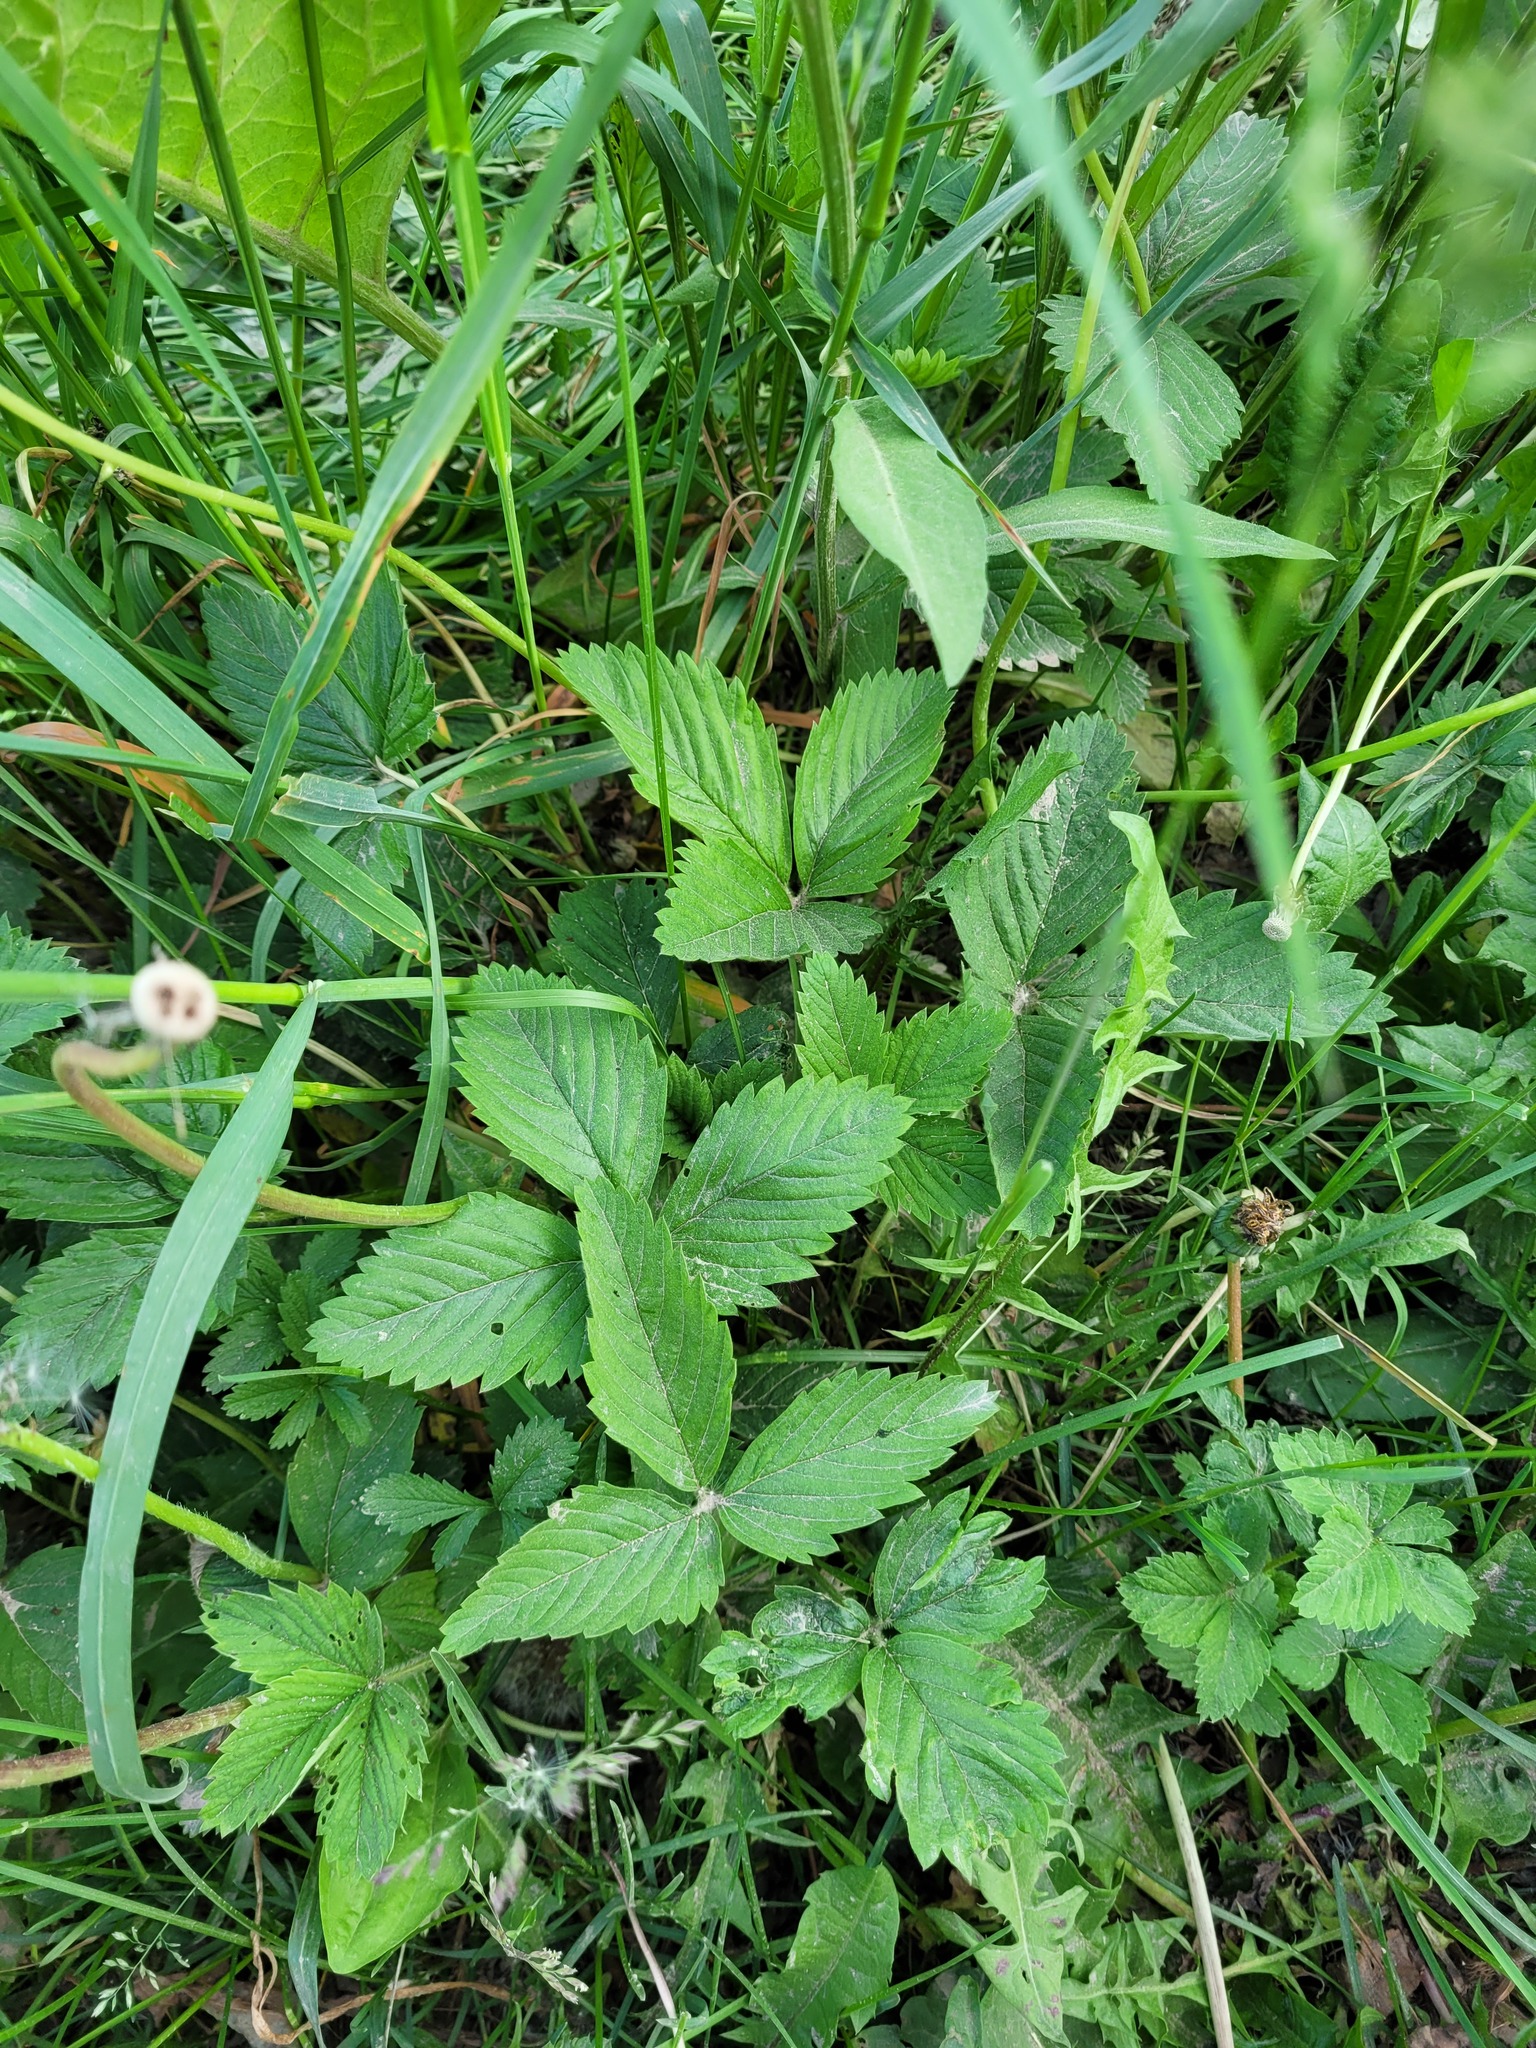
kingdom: Plantae
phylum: Tracheophyta
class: Magnoliopsida
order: Rosales
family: Rosaceae
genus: Fragaria
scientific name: Fragaria ananassa
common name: Garden strawberry
